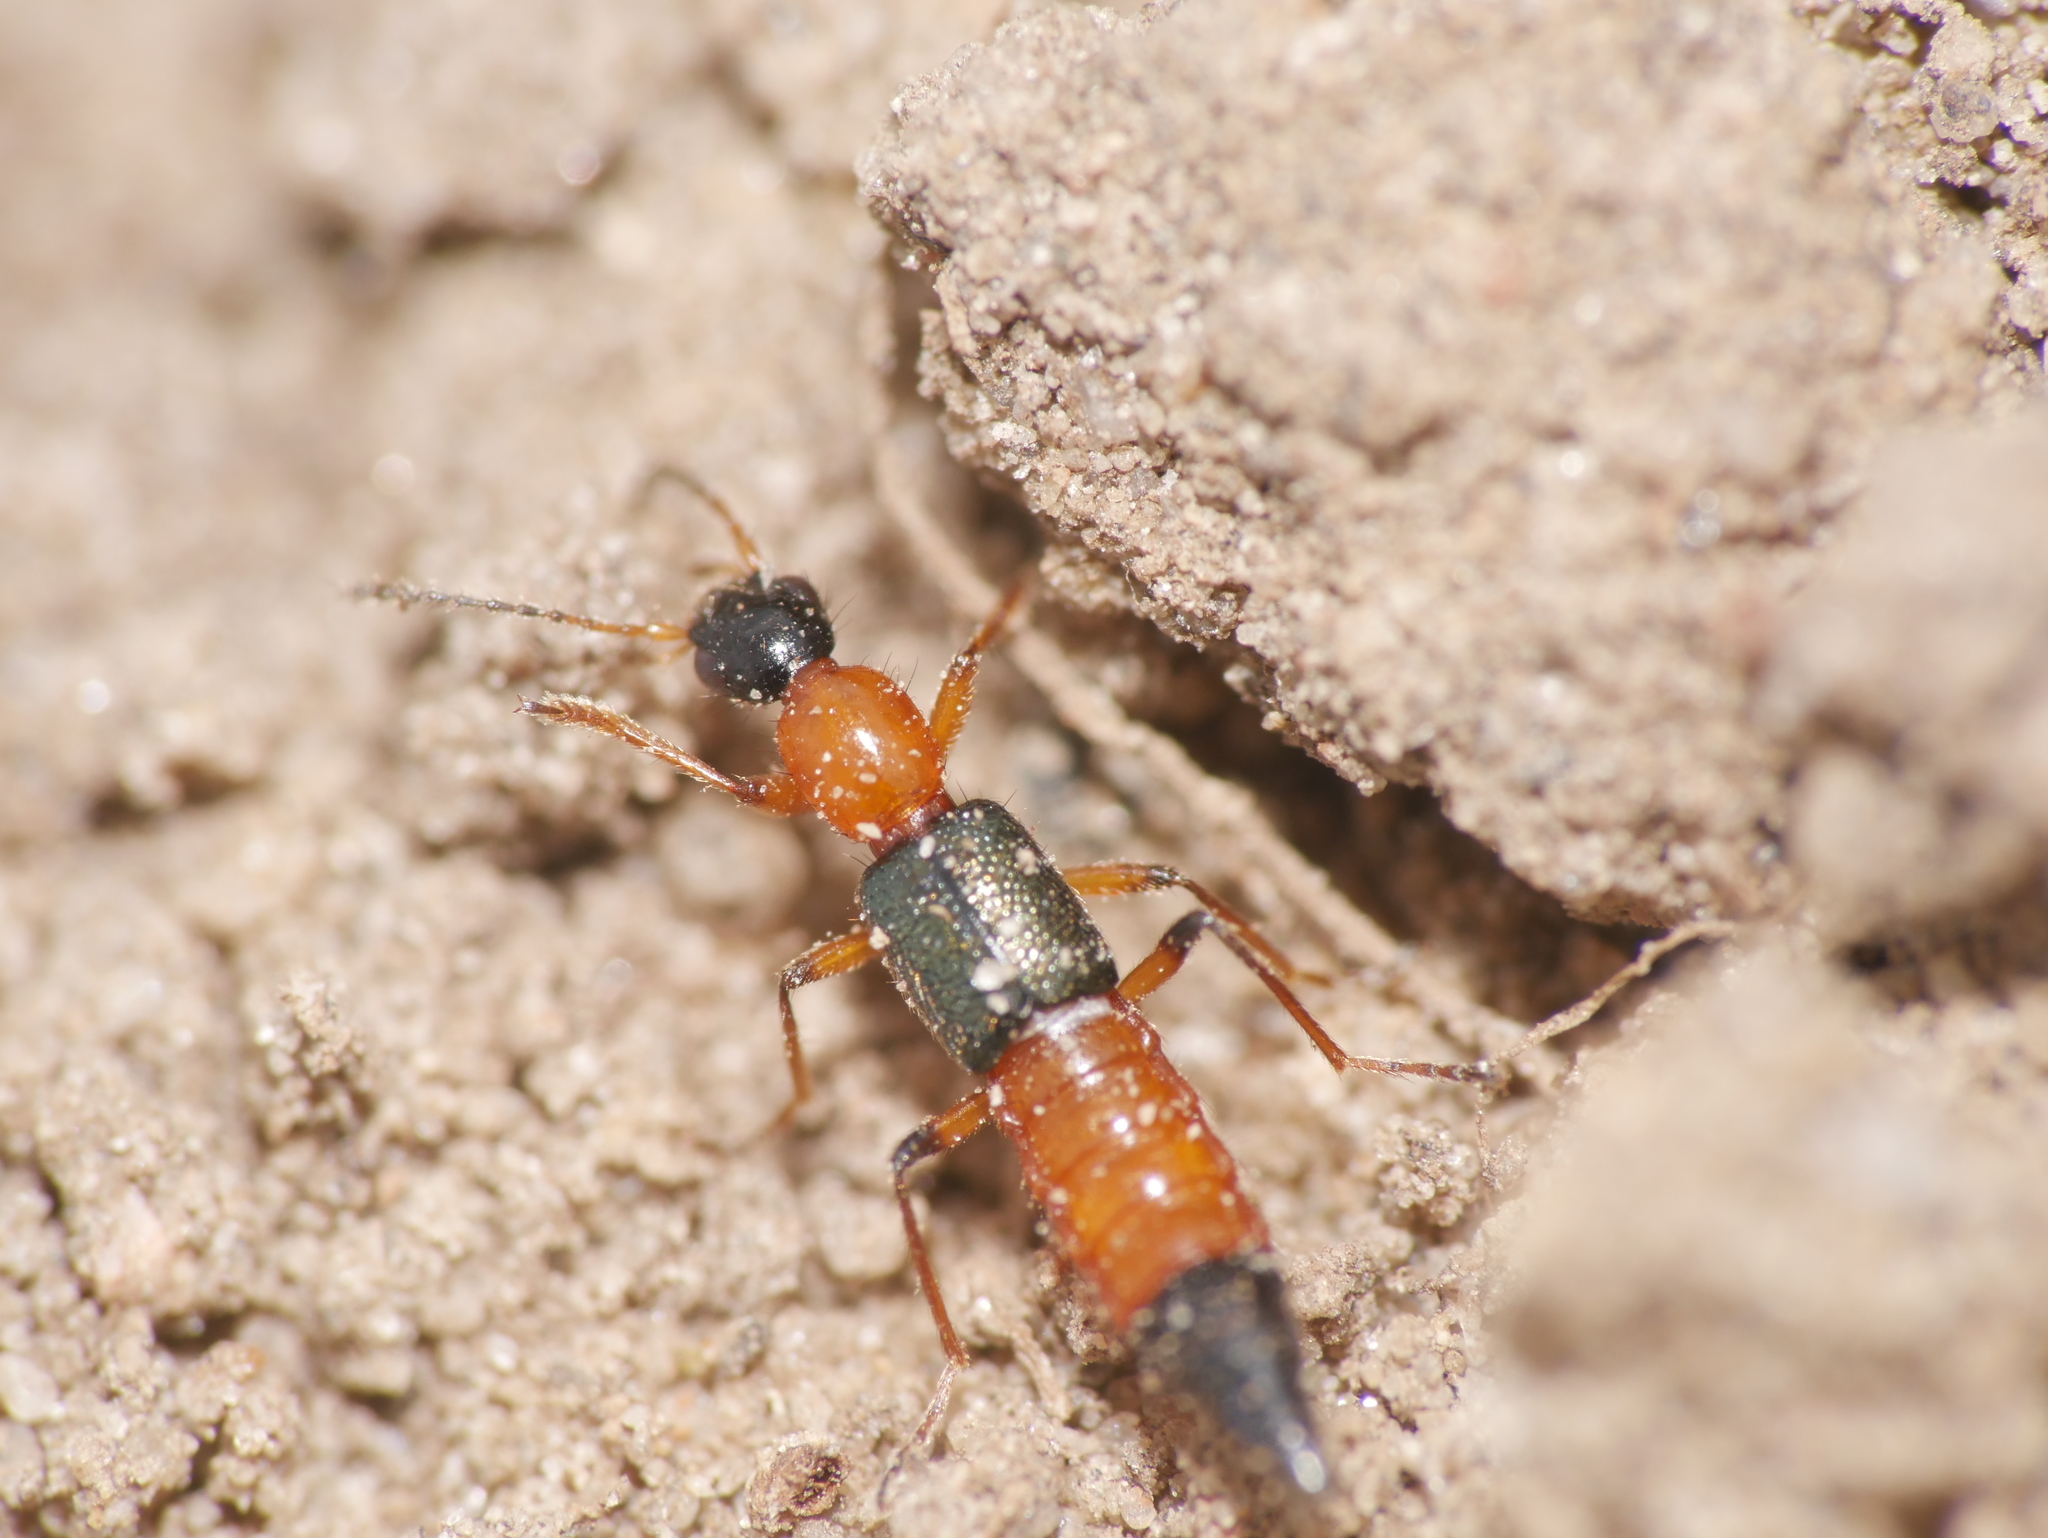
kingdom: Animalia
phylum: Arthropoda
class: Insecta
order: Coleoptera
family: Staphylinidae
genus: Paederus
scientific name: Paederus fuscipes
